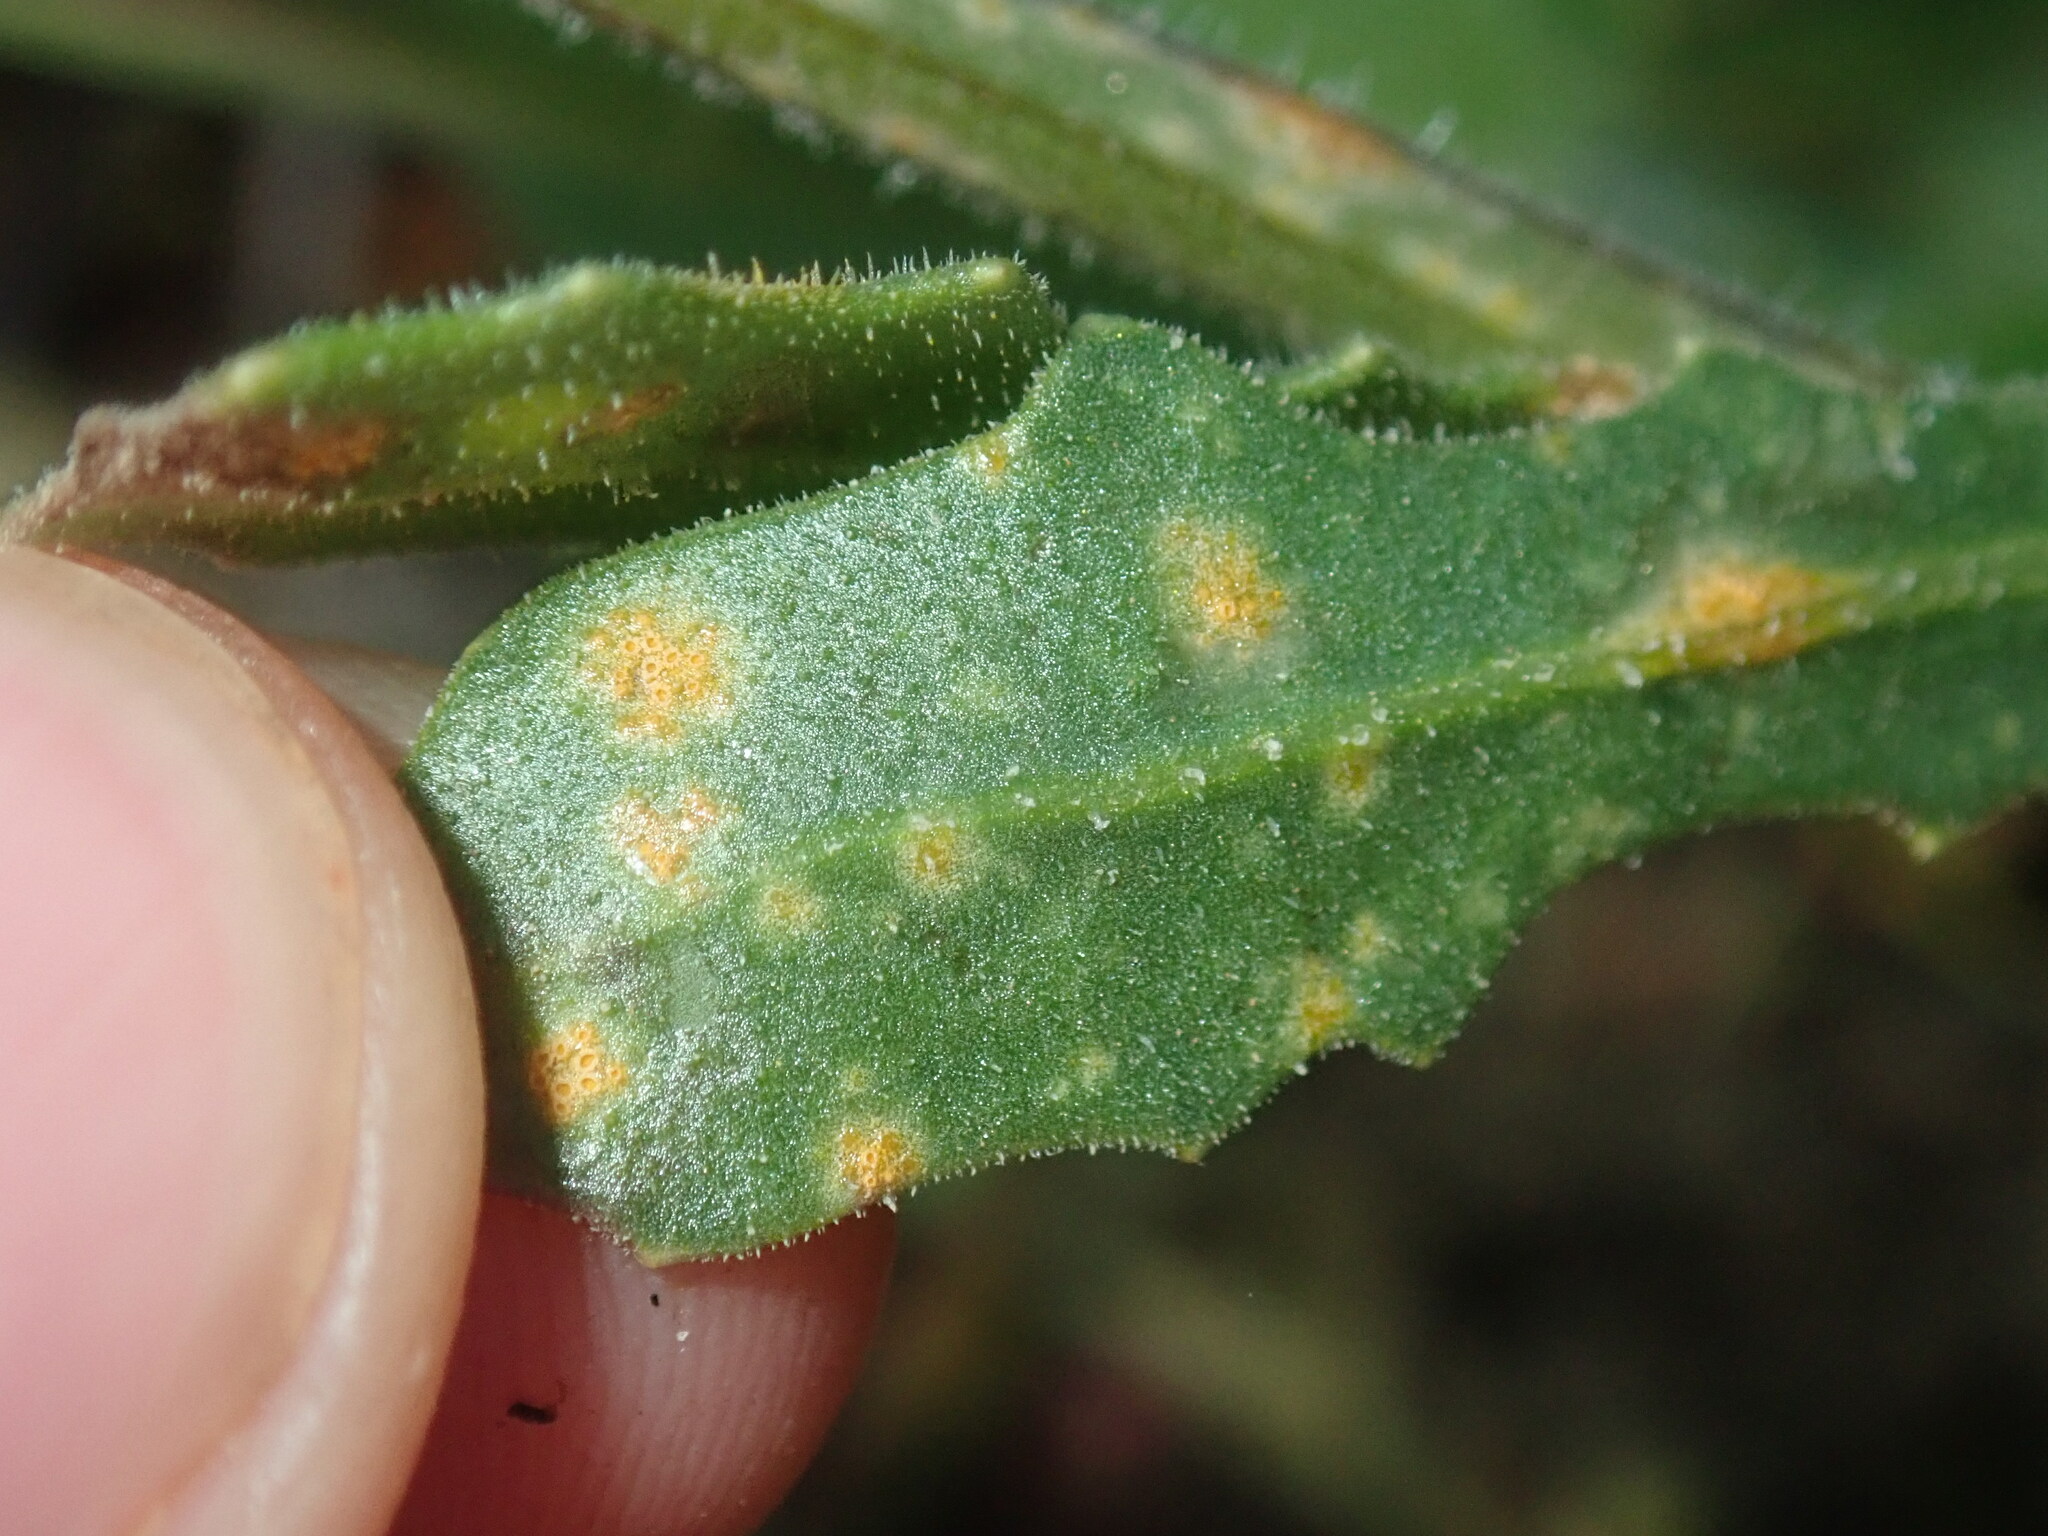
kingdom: Fungi
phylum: Basidiomycota
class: Pucciniomycetes
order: Pucciniales
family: Pucciniaceae
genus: Puccinia
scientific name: Puccinia lagenophorae
